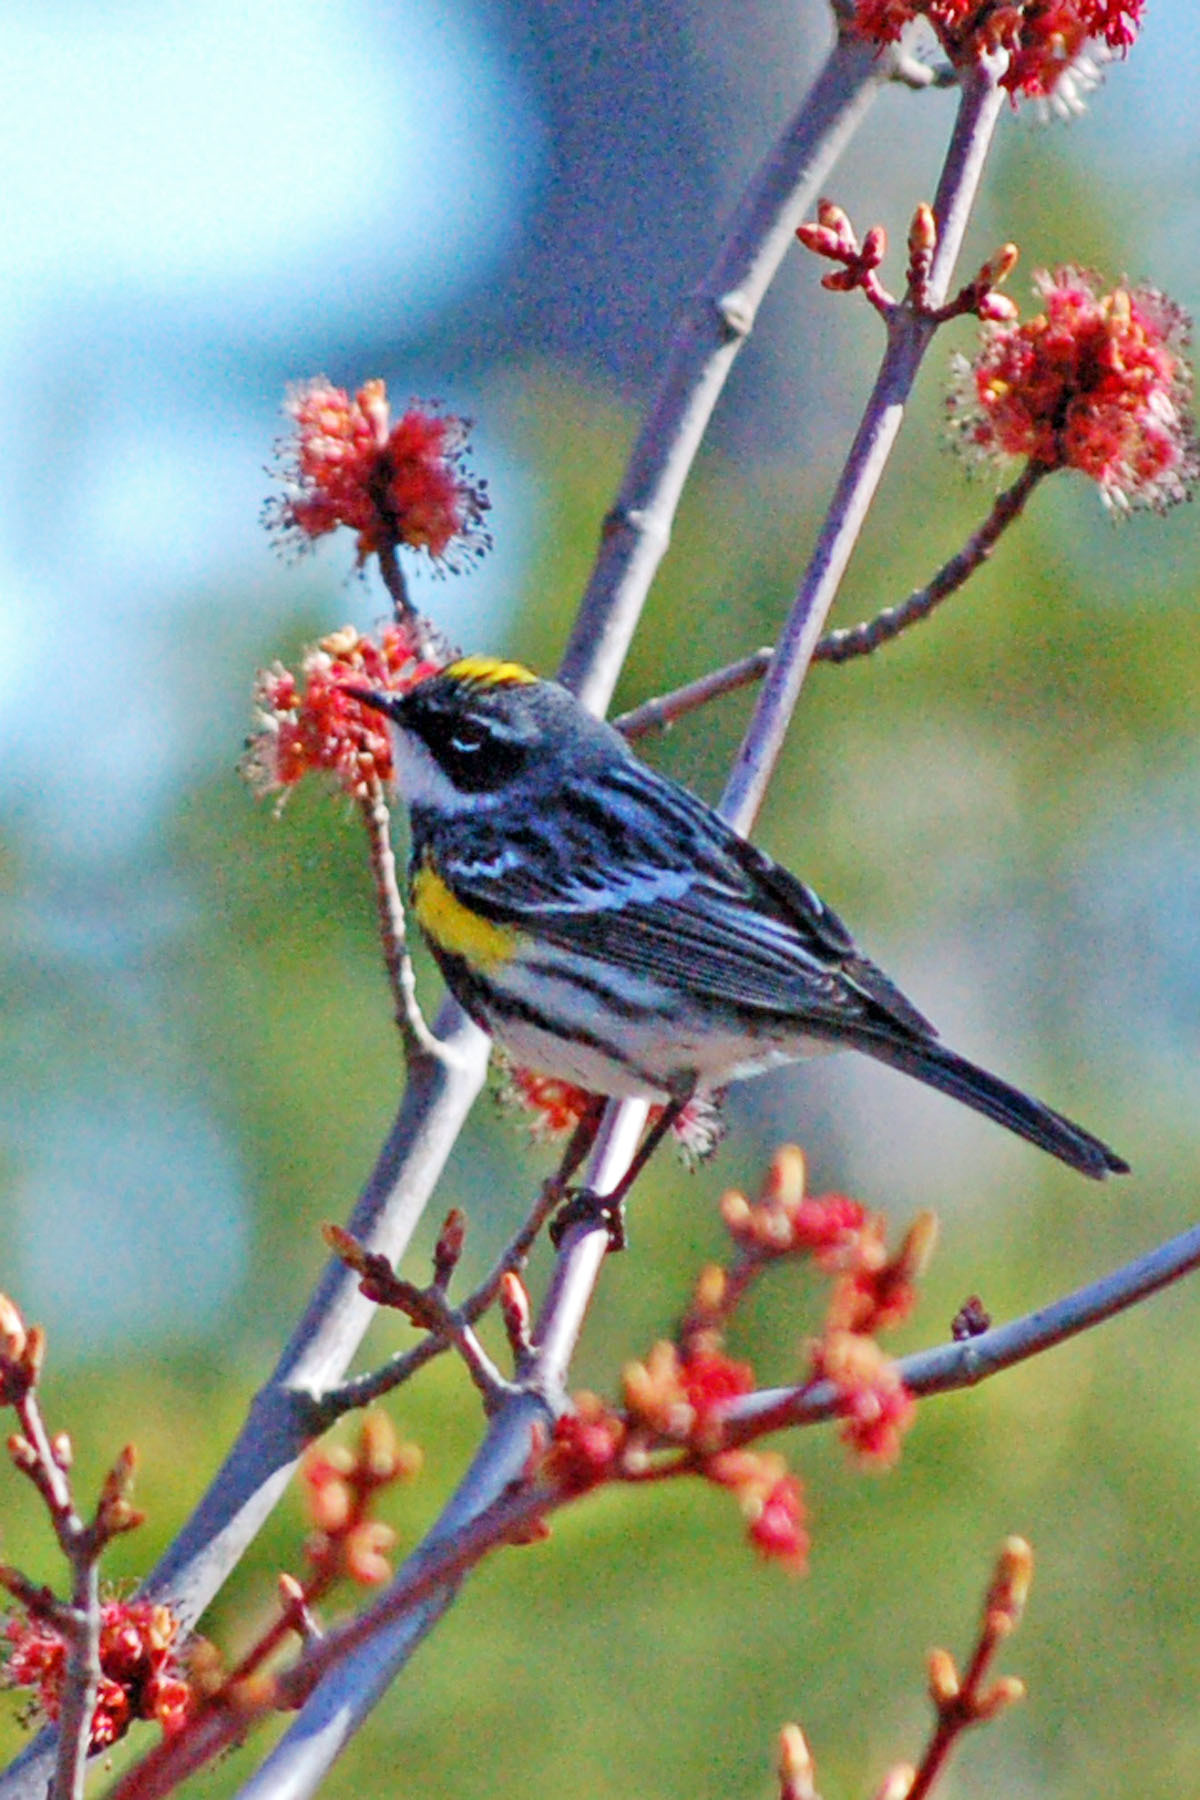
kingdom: Animalia
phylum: Chordata
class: Aves
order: Passeriformes
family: Parulidae
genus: Setophaga
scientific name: Setophaga coronata
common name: Myrtle warbler
